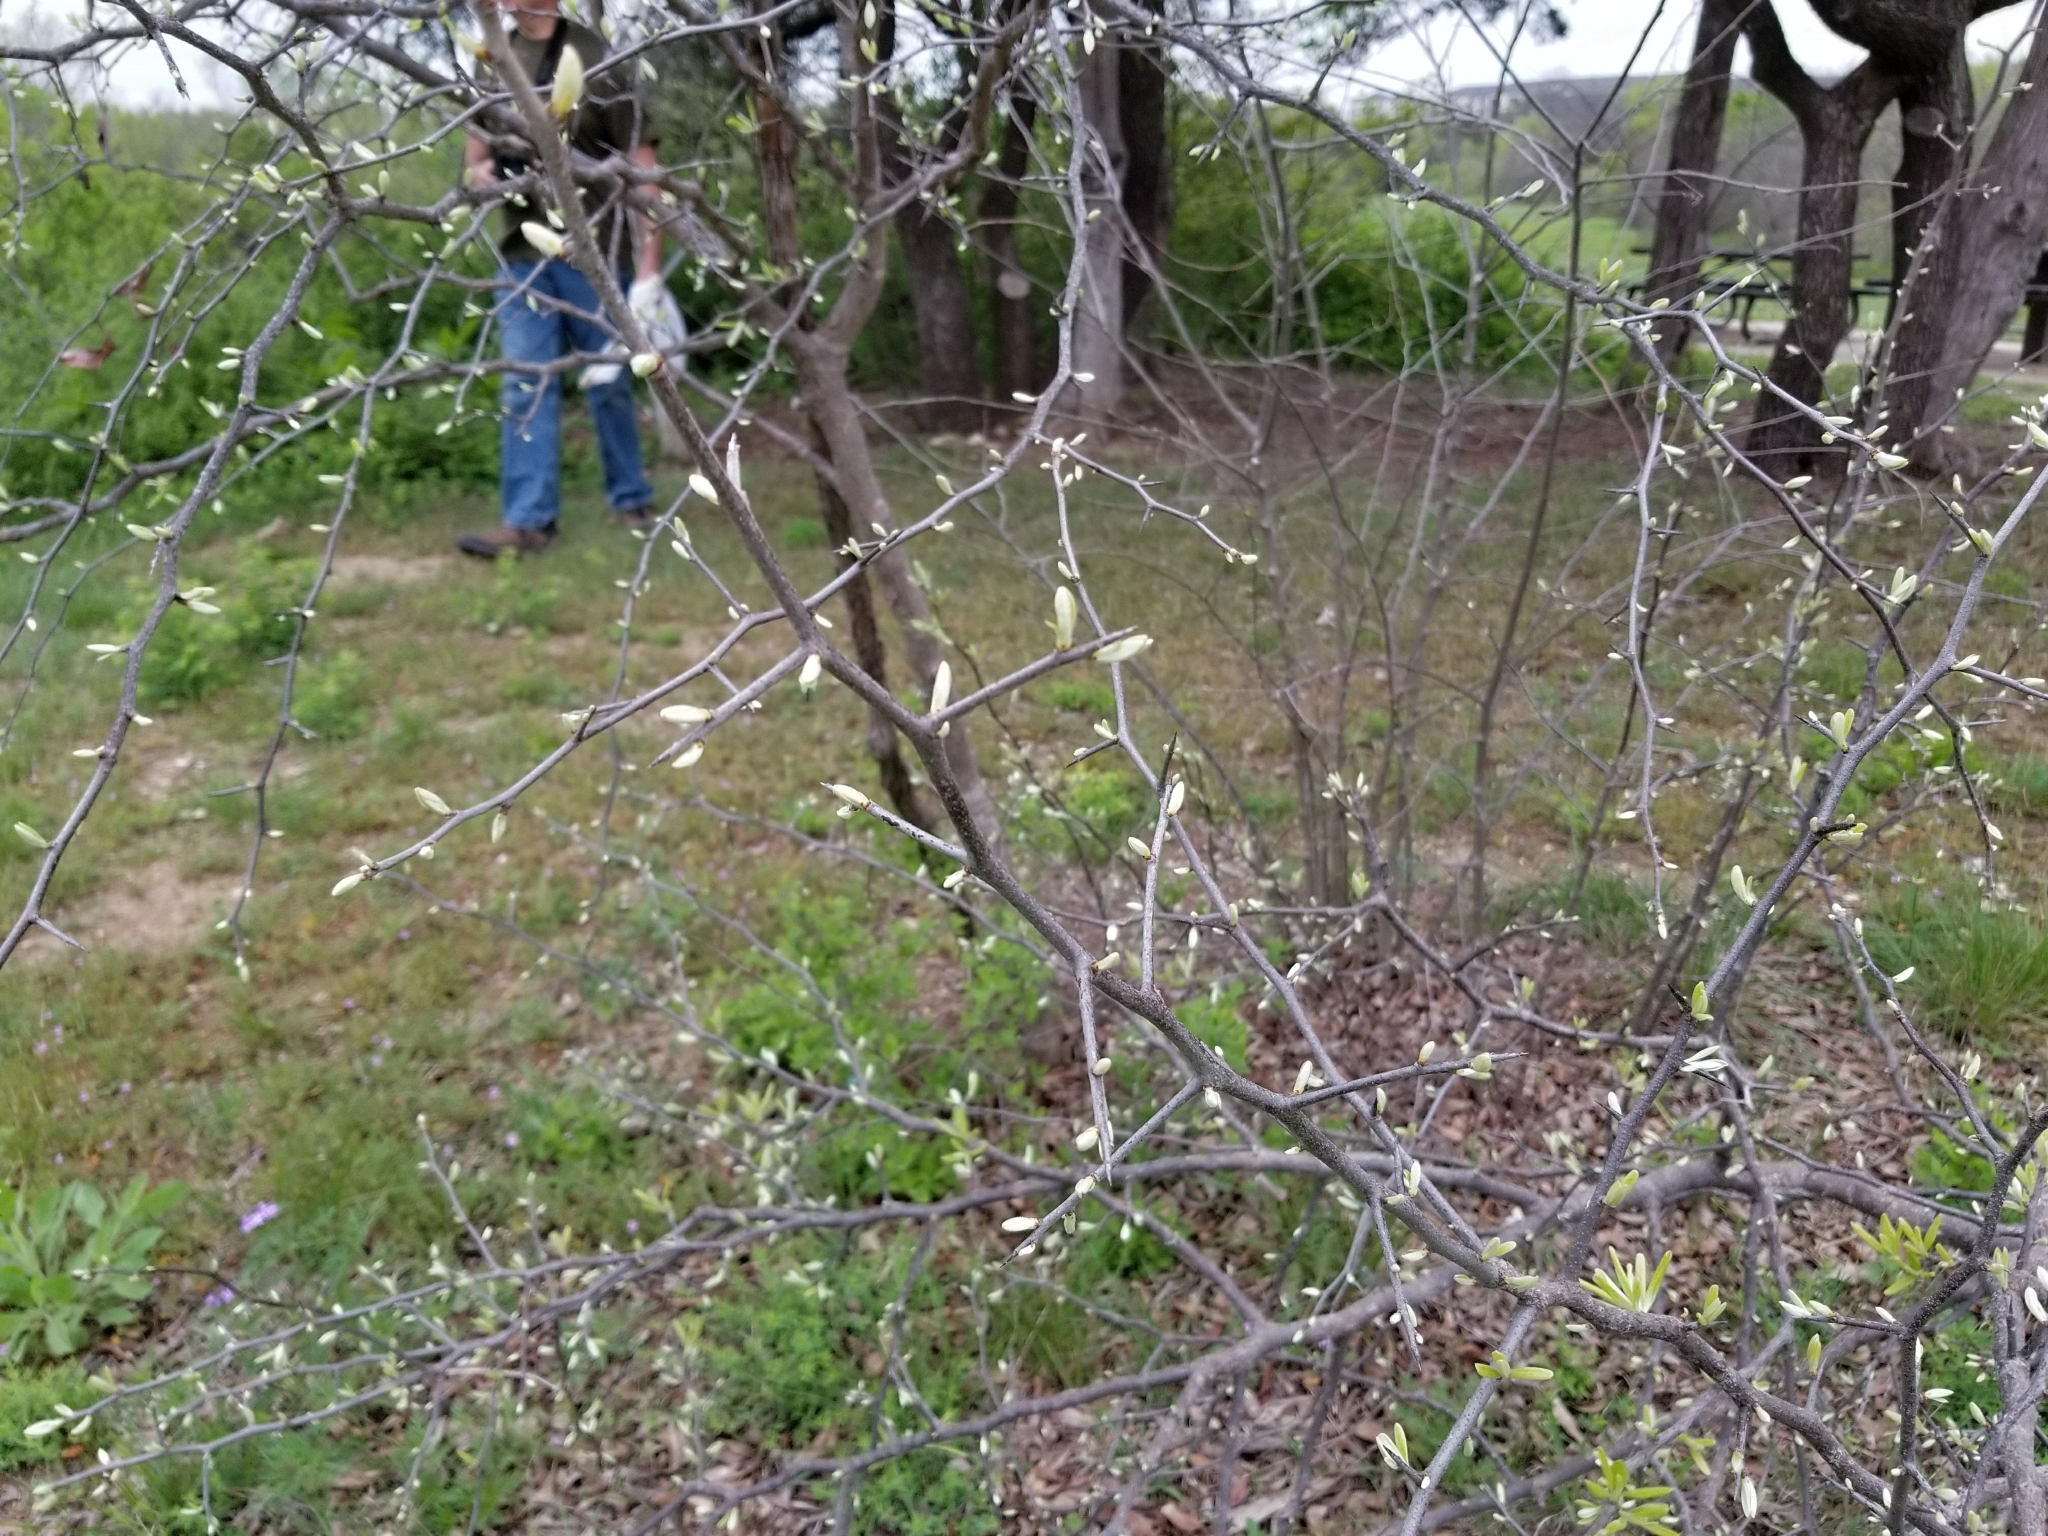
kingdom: Plantae
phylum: Tracheophyta
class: Magnoliopsida
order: Ericales
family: Sapotaceae
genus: Sideroxylon
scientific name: Sideroxylon lanuginosum
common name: Chittamwood
